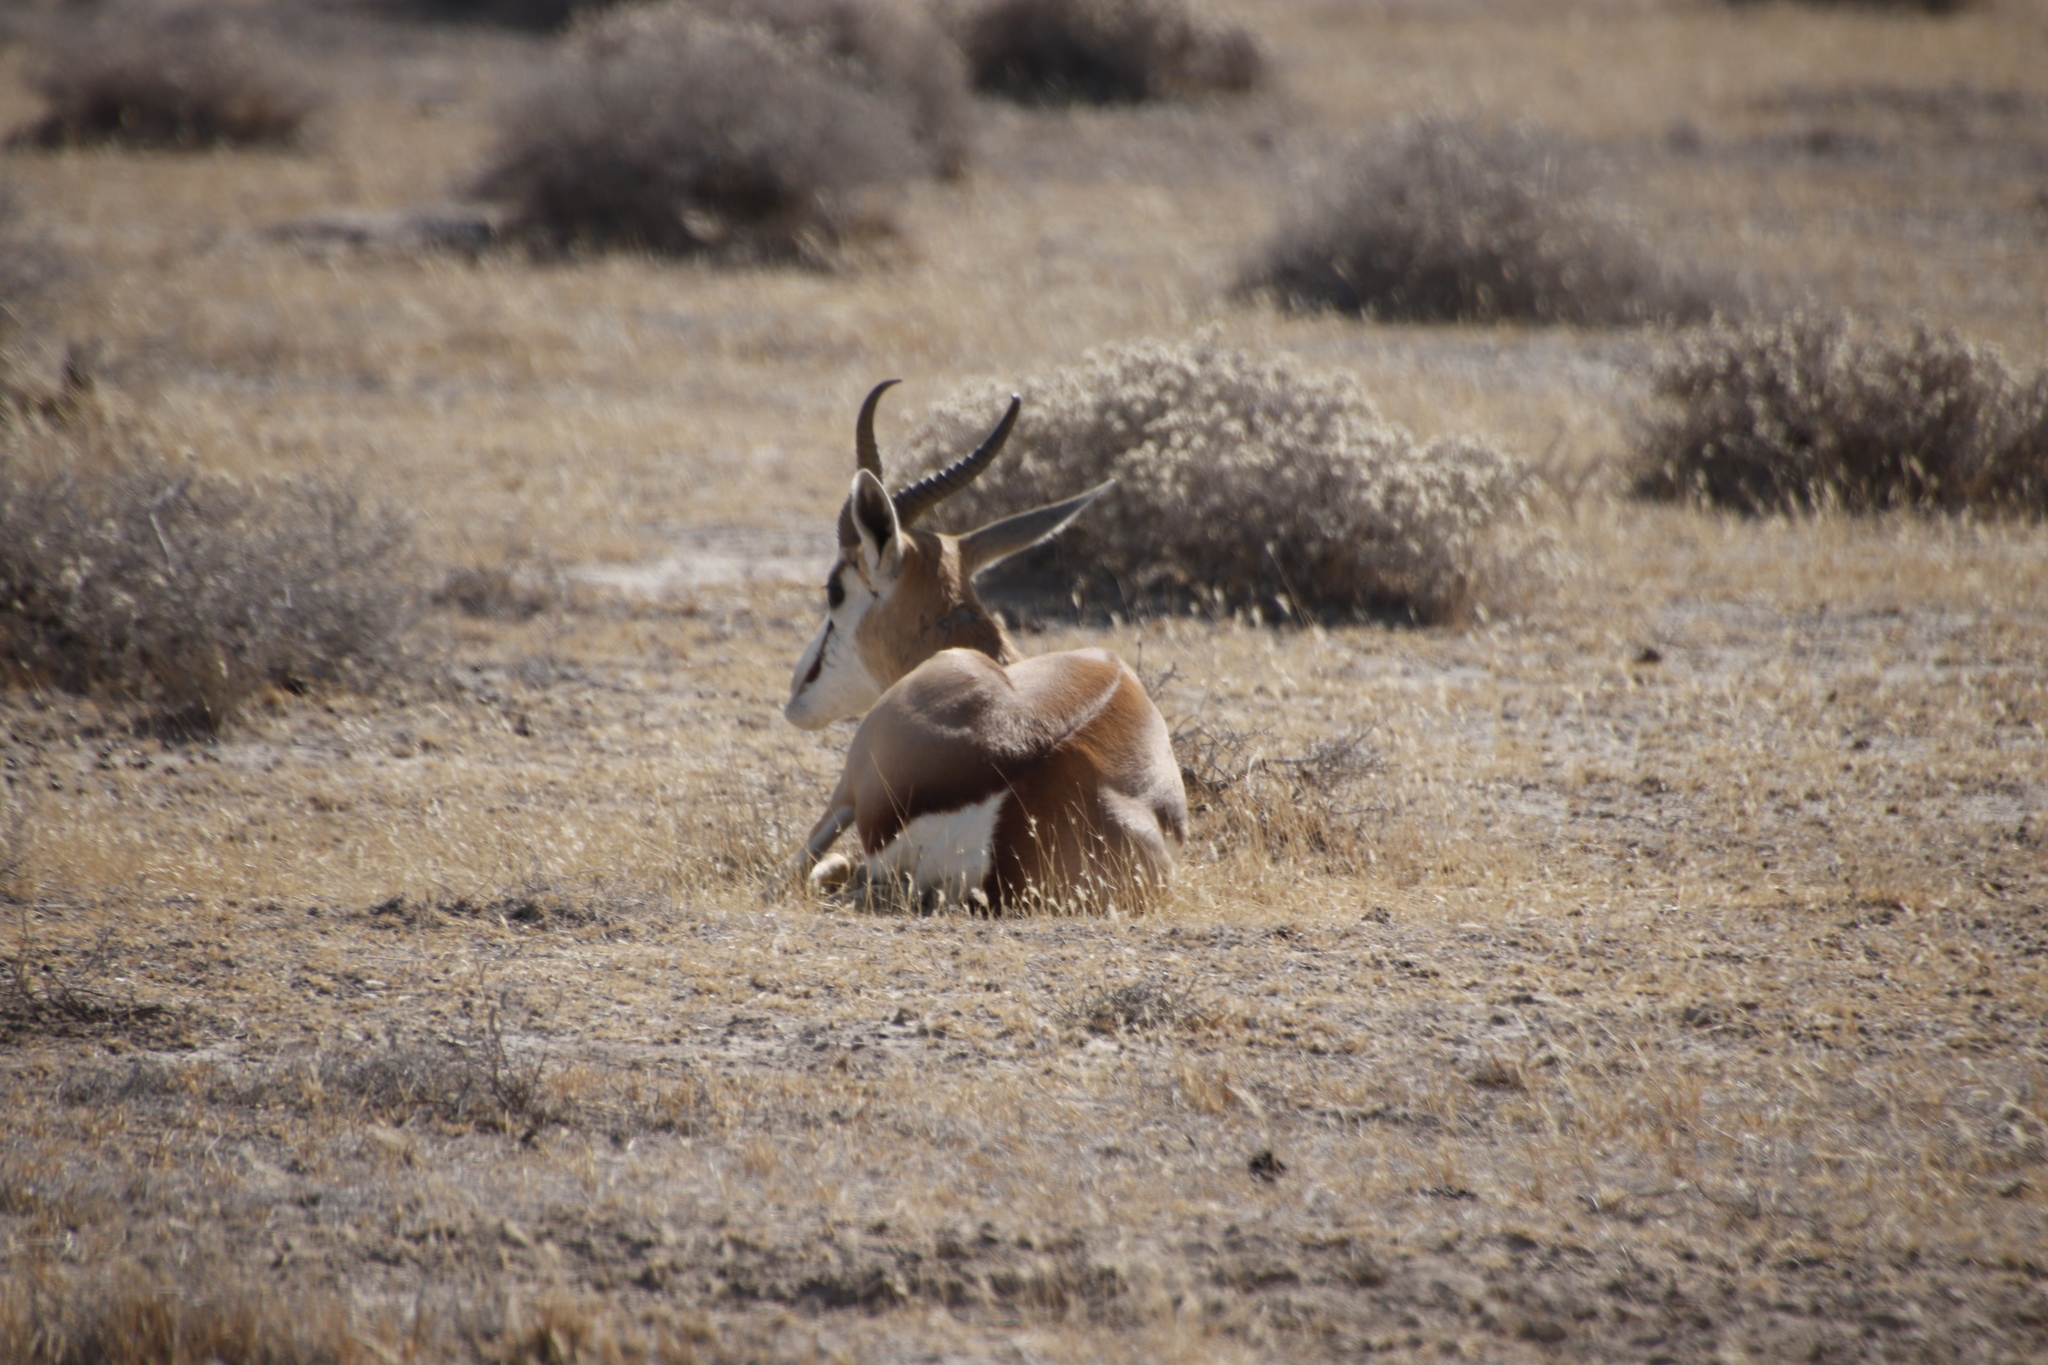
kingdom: Animalia
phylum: Chordata
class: Mammalia
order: Artiodactyla
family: Bovidae
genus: Antidorcas
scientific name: Antidorcas marsupialis
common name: Springbok
